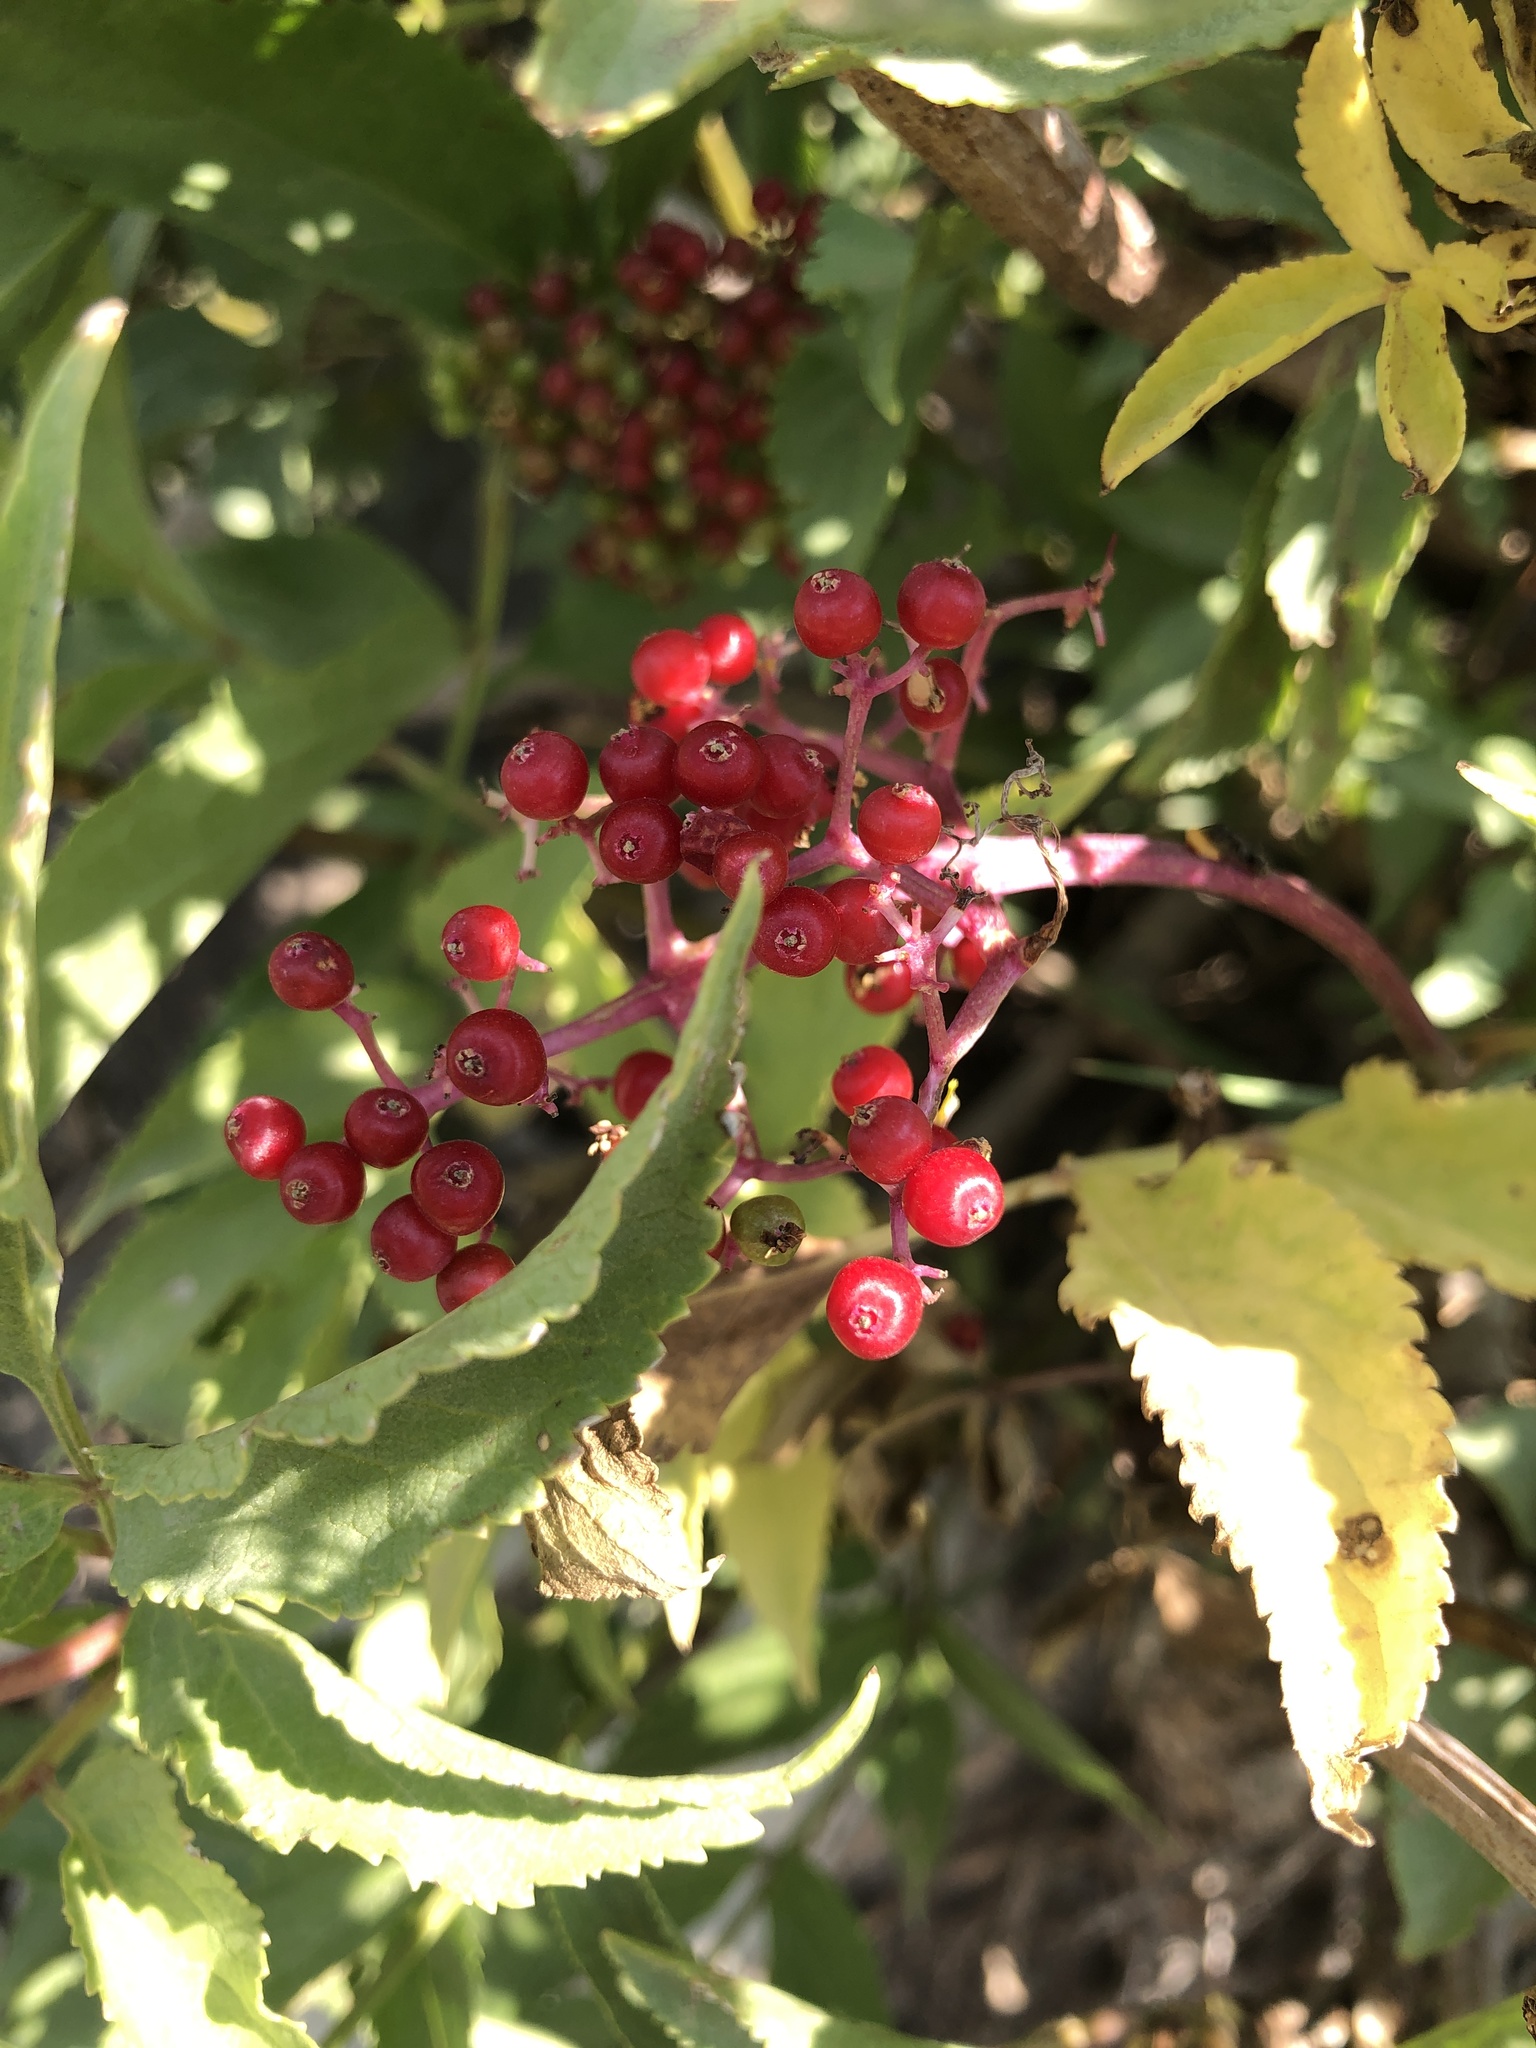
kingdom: Plantae
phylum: Tracheophyta
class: Magnoliopsida
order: Dipsacales
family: Viburnaceae
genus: Sambucus
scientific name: Sambucus racemosa
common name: Red-berried elder
